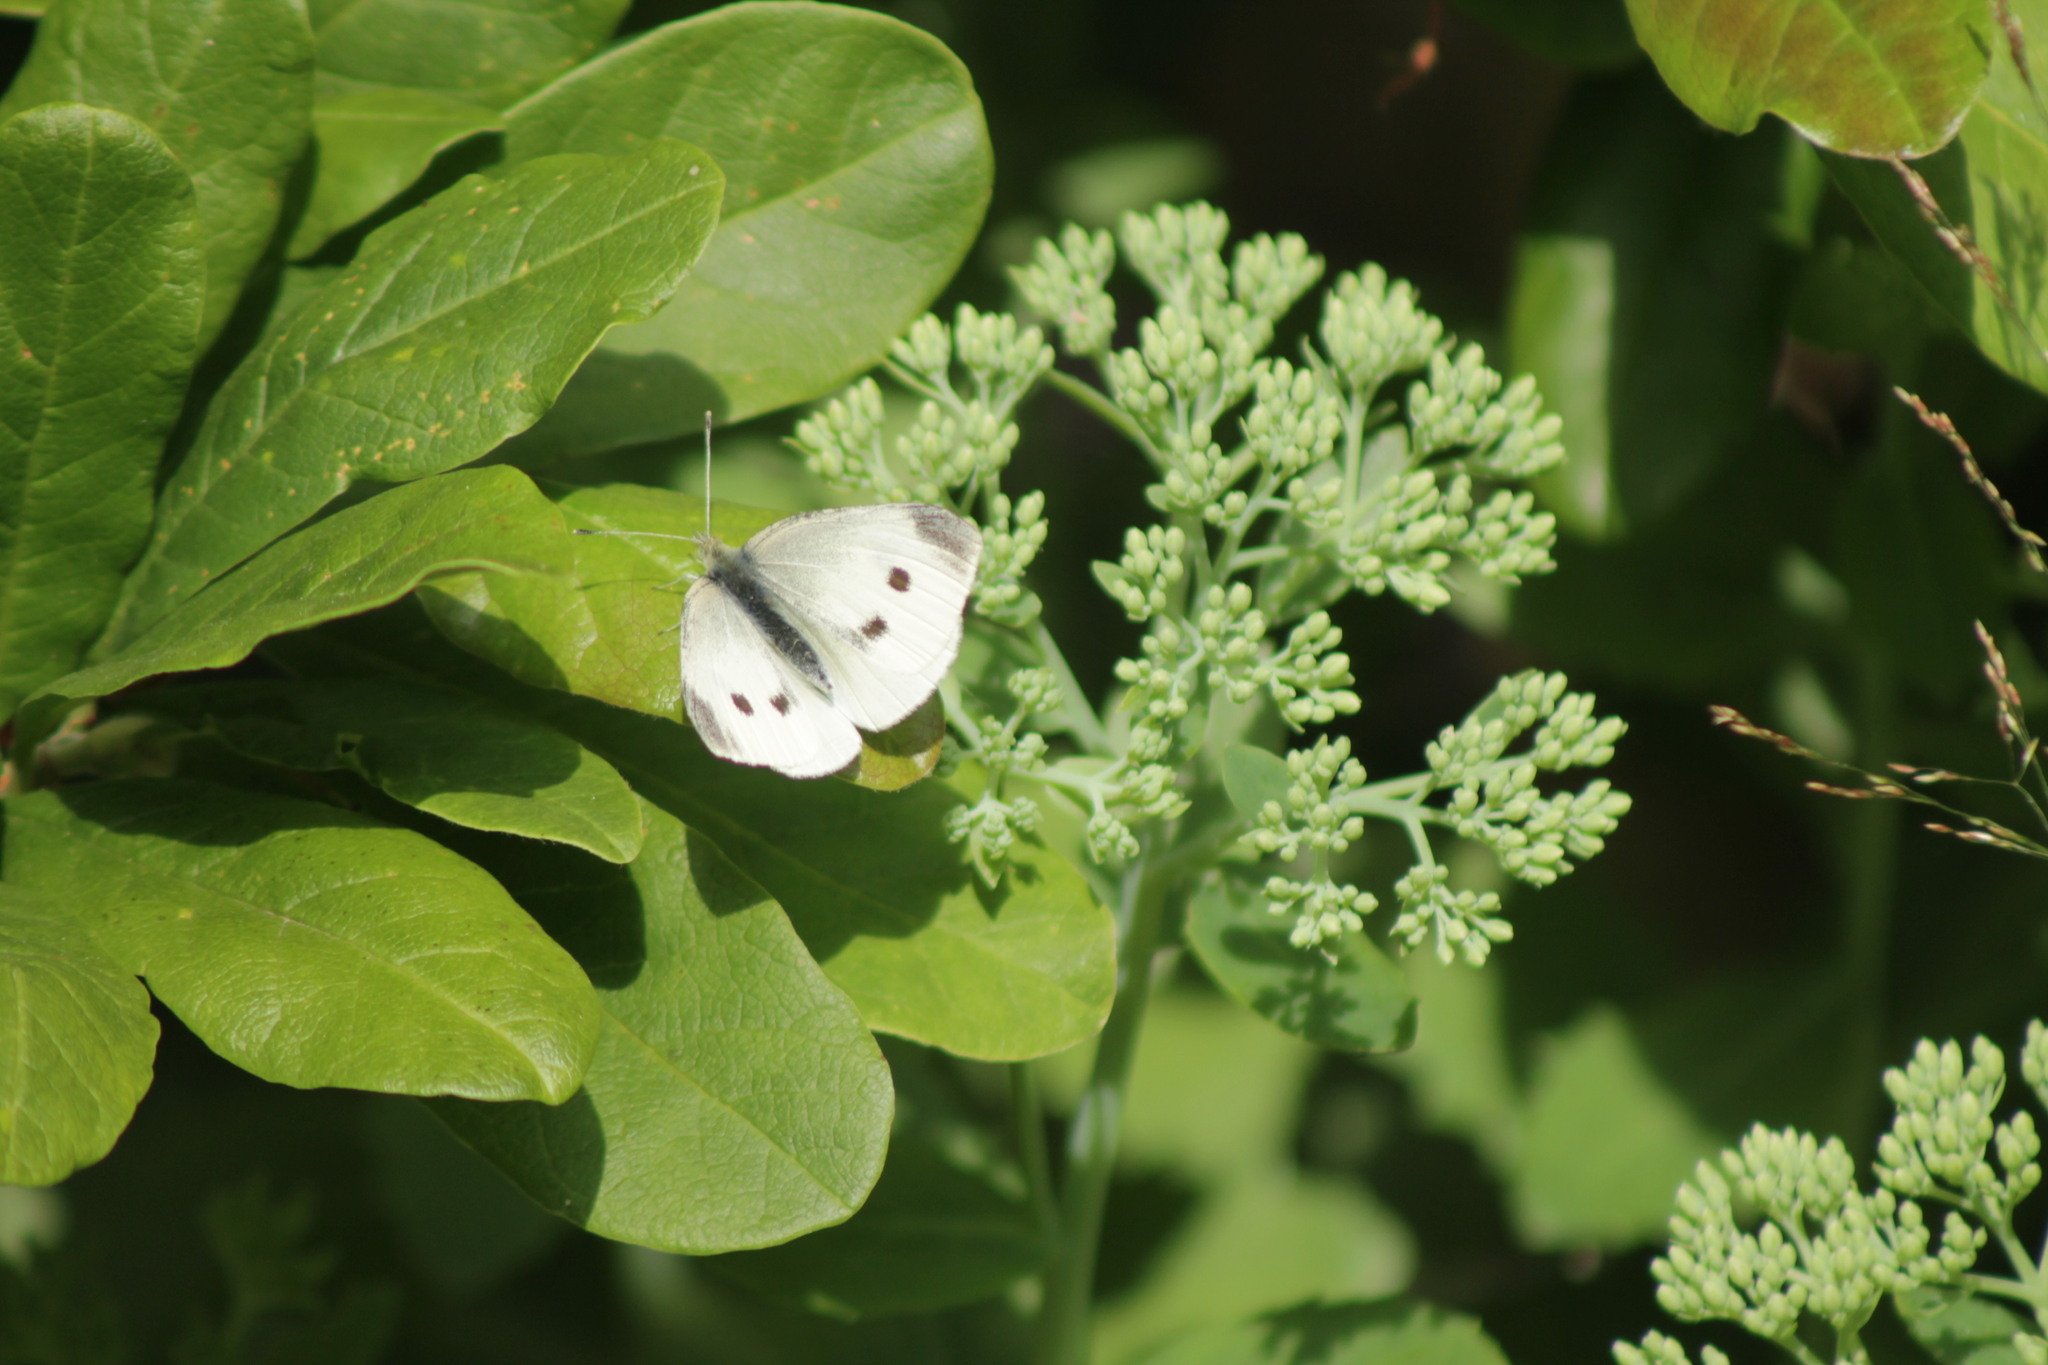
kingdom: Animalia
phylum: Arthropoda
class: Insecta
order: Lepidoptera
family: Pieridae
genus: Pieris
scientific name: Pieris rapae
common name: Small white
